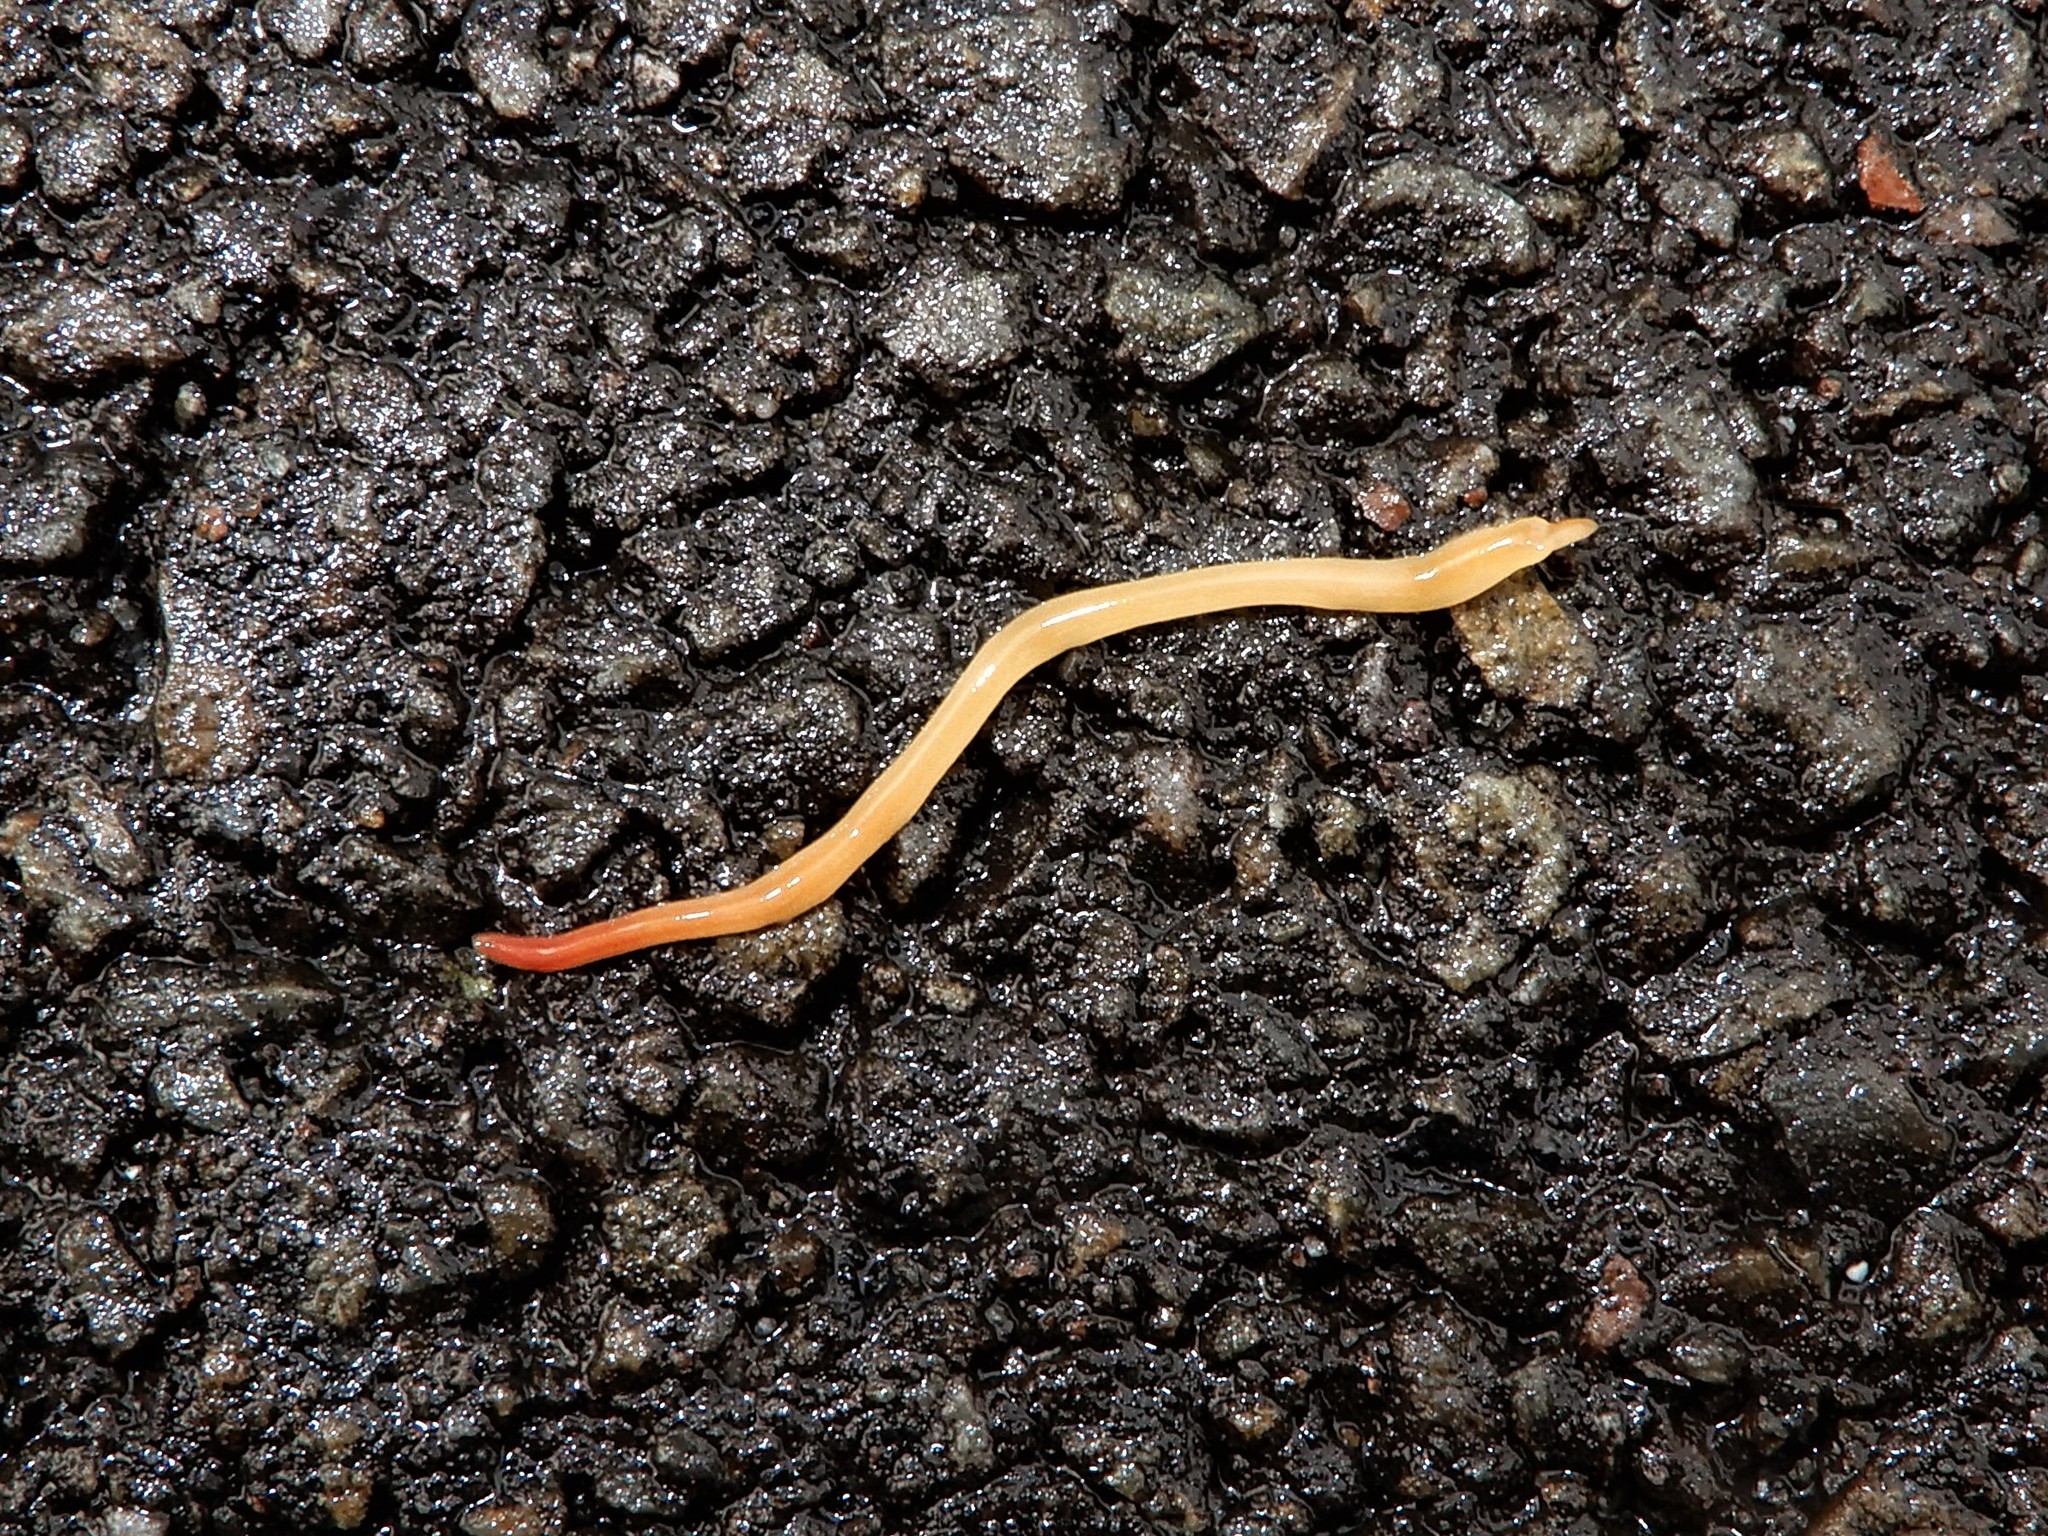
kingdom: Animalia
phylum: Platyhelminthes
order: Tricladida
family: Geoplanidae
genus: Australoplana
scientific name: Australoplana sanguinea
